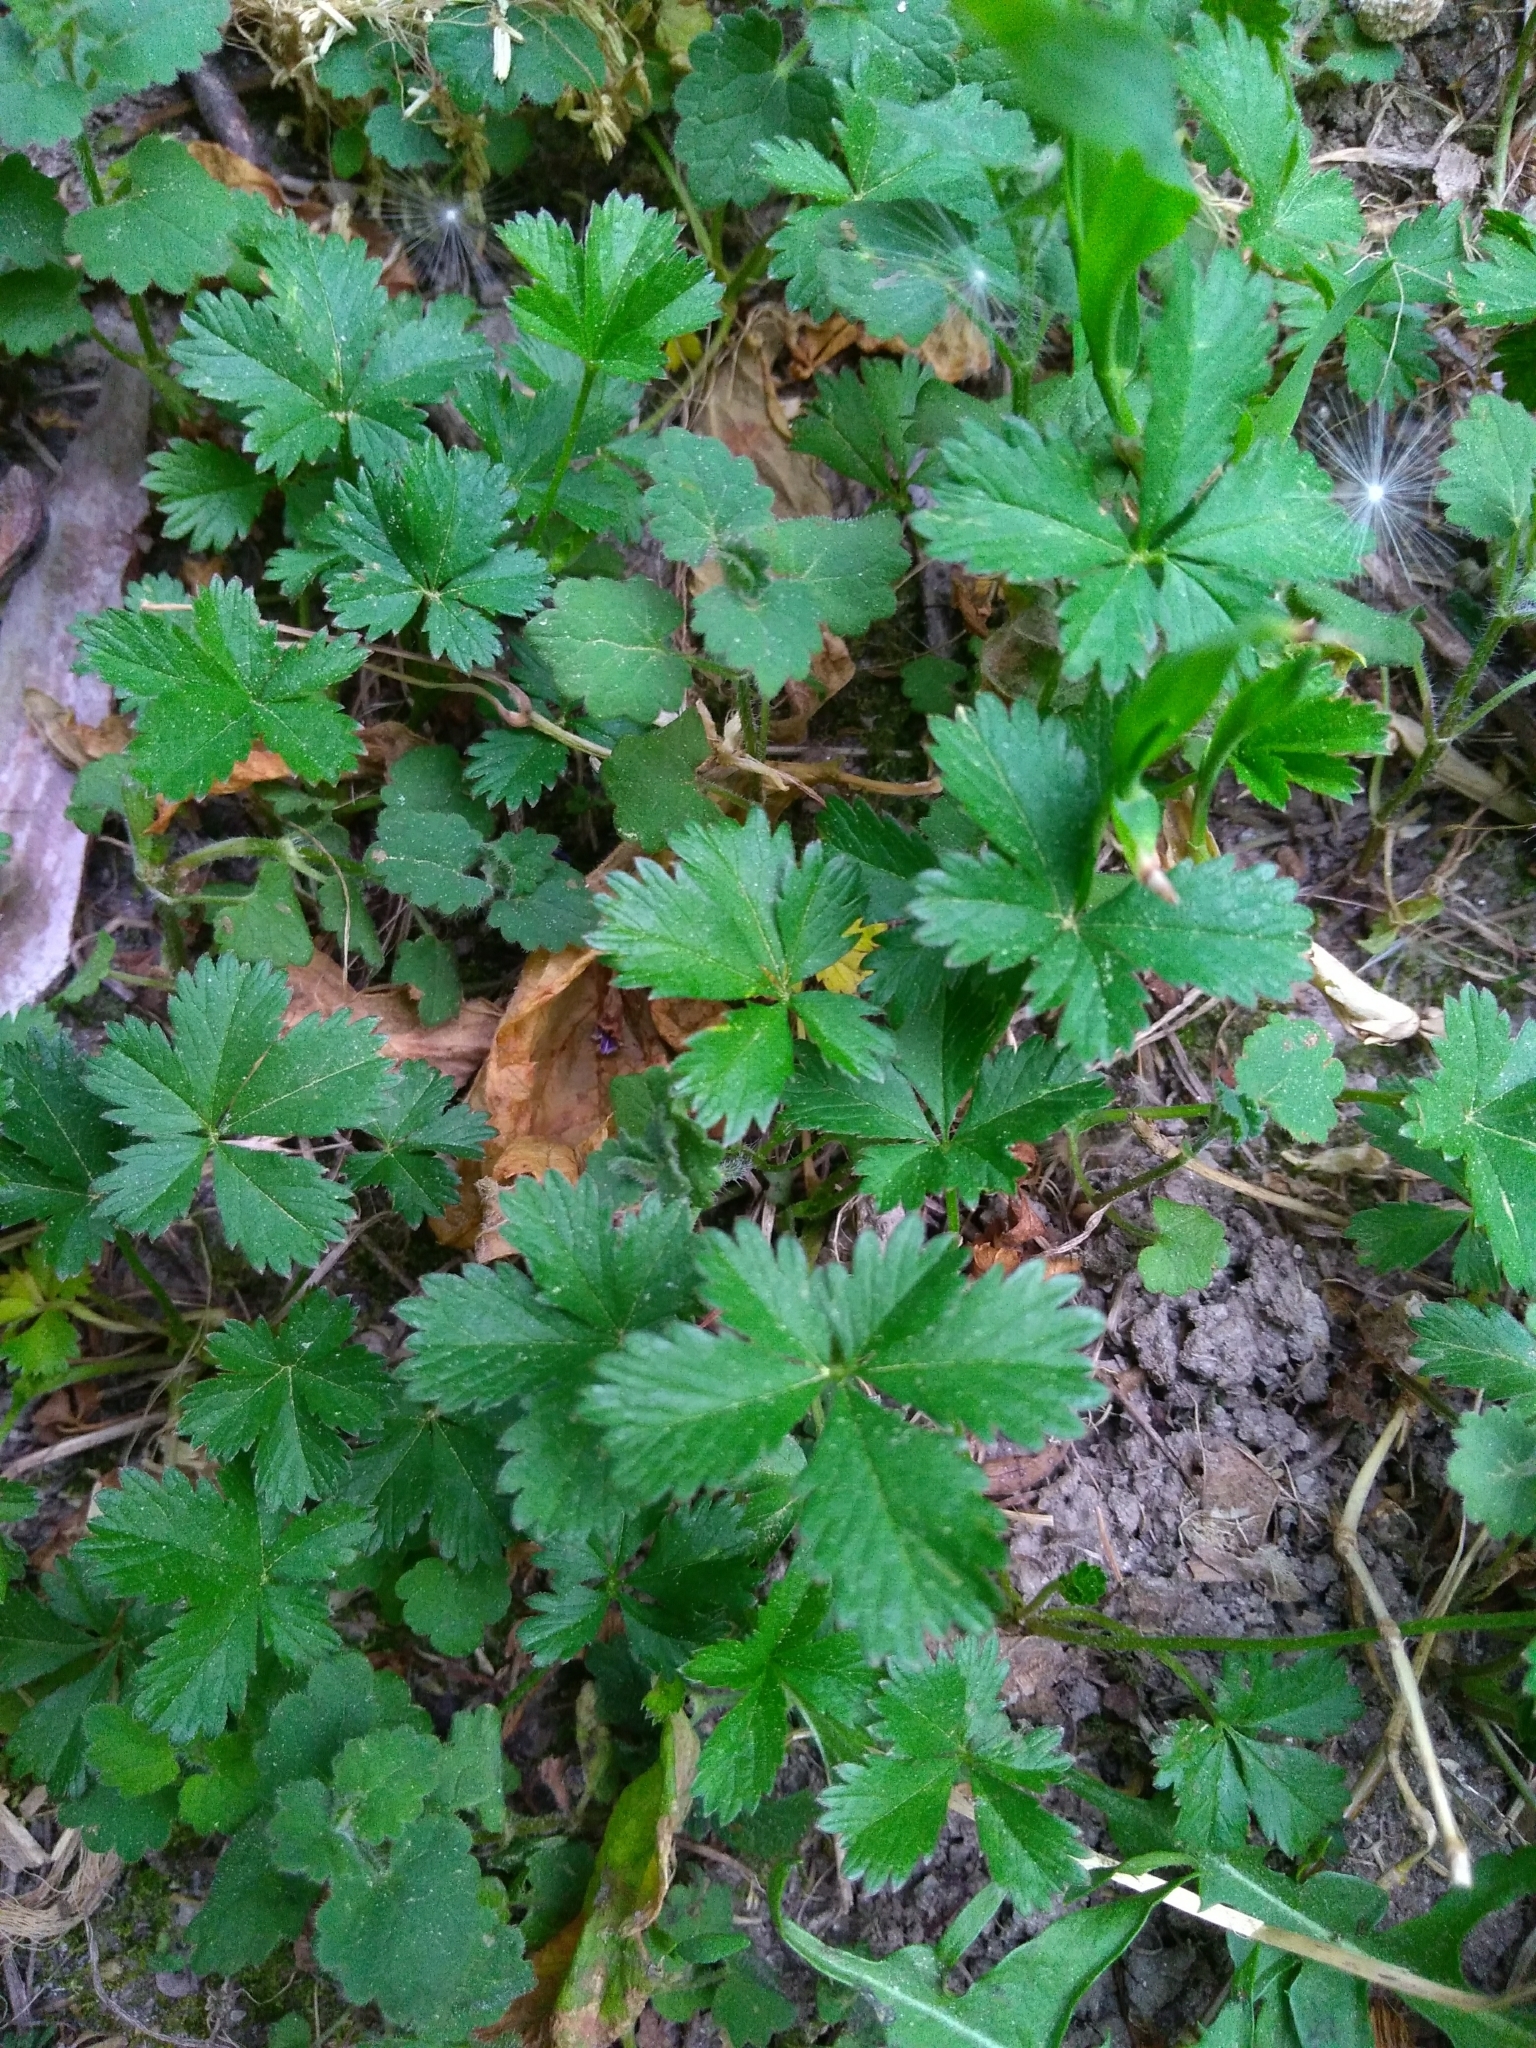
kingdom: Plantae
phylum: Tracheophyta
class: Magnoliopsida
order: Rosales
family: Rosaceae
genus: Potentilla
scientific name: Potentilla reptans
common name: Creeping cinquefoil
